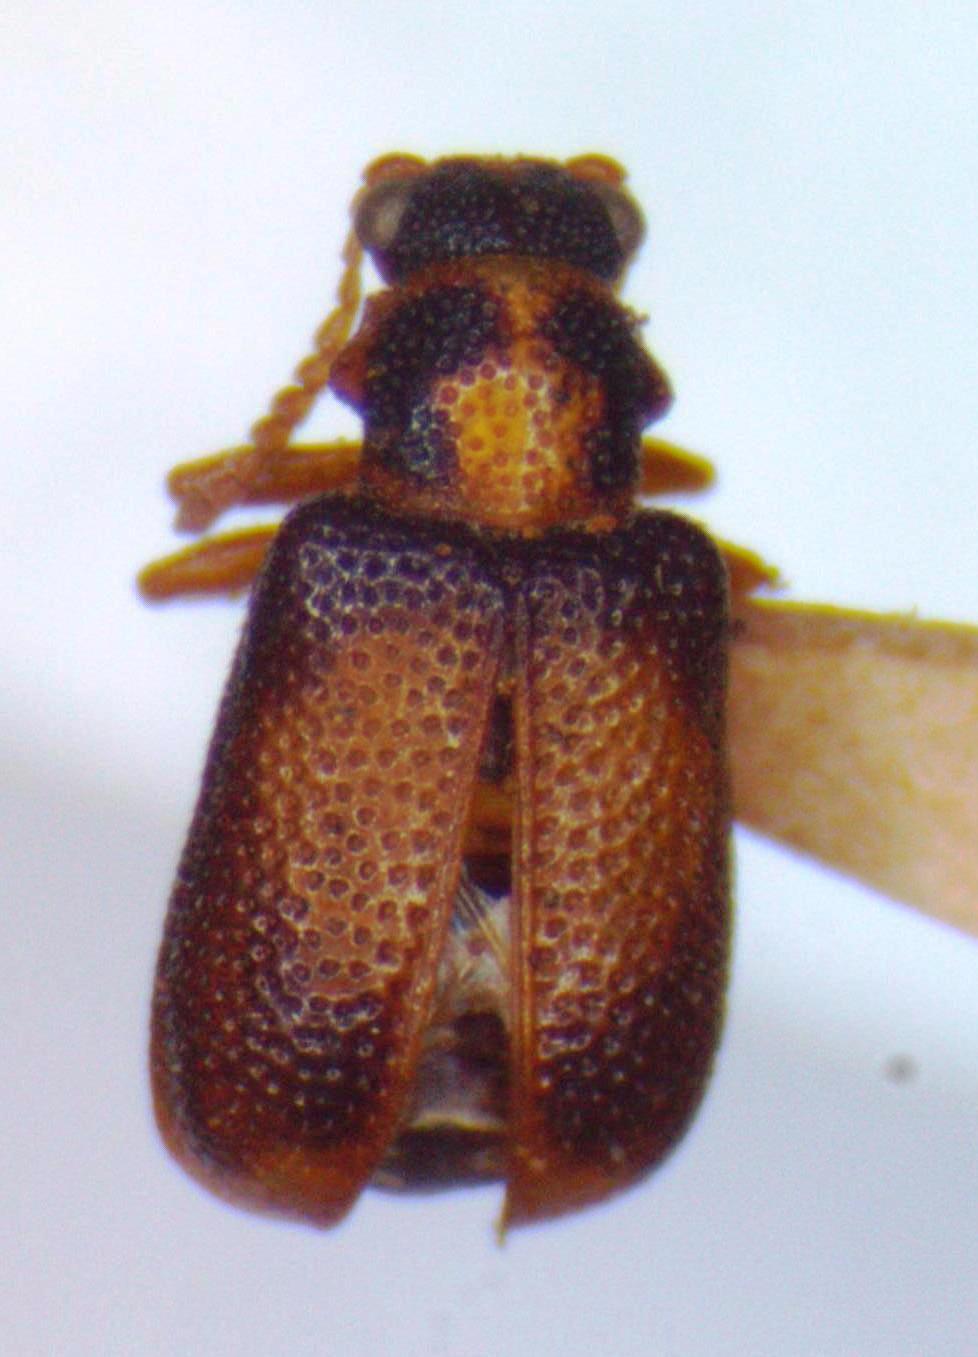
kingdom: Animalia
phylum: Arthropoda
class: Insecta
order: Coleoptera
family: Megalopodidae
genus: Zeugophora
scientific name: Zeugophora varians
